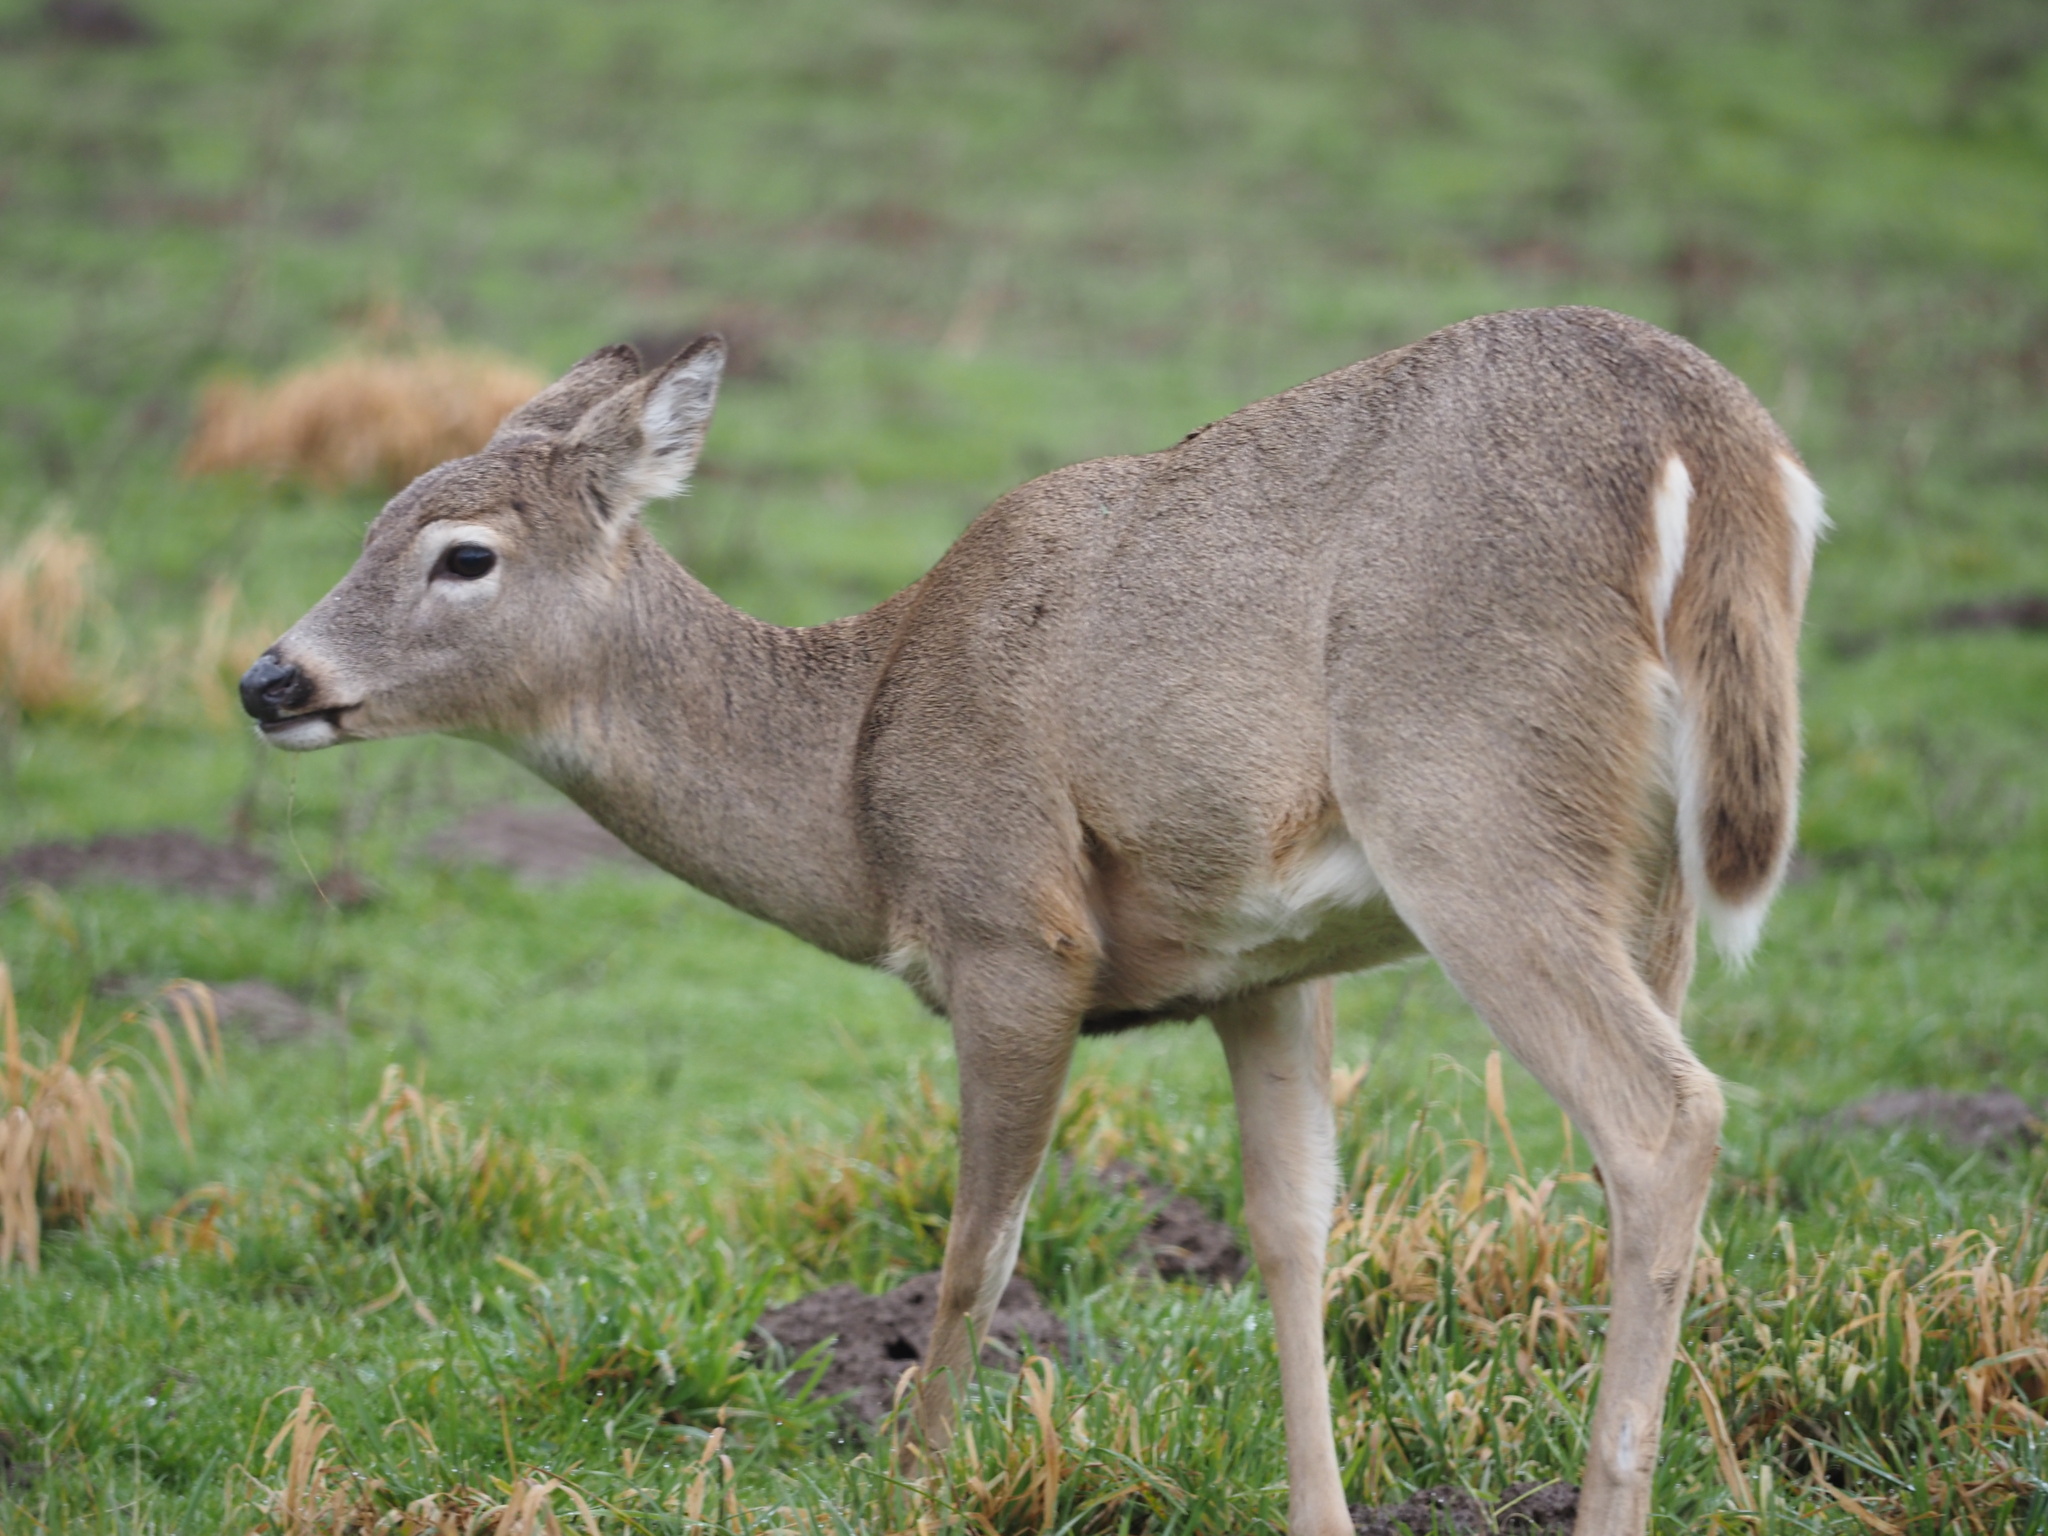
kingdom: Animalia
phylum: Chordata
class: Mammalia
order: Artiodactyla
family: Cervidae
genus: Odocoileus
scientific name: Odocoileus virginianus
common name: White-tailed deer
